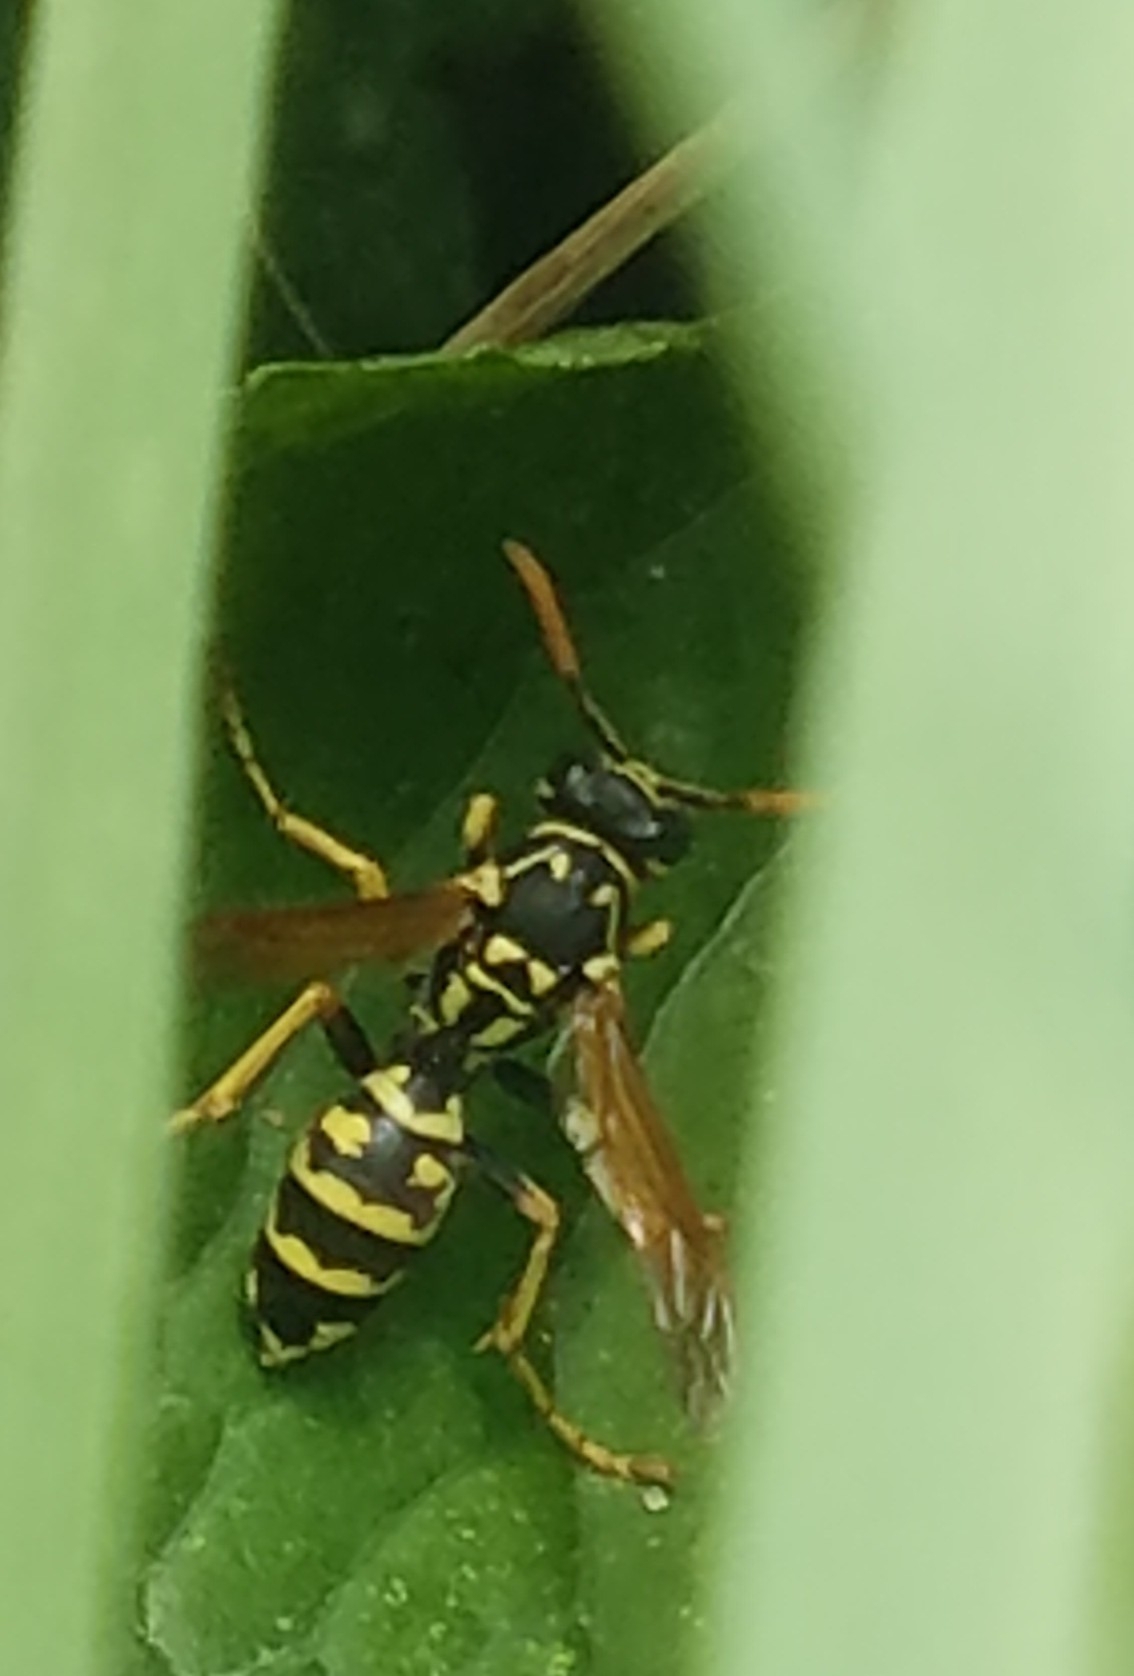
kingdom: Animalia
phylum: Arthropoda
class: Insecta
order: Hymenoptera
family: Eumenidae
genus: Polistes
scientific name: Polistes dominula
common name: Paper wasp
